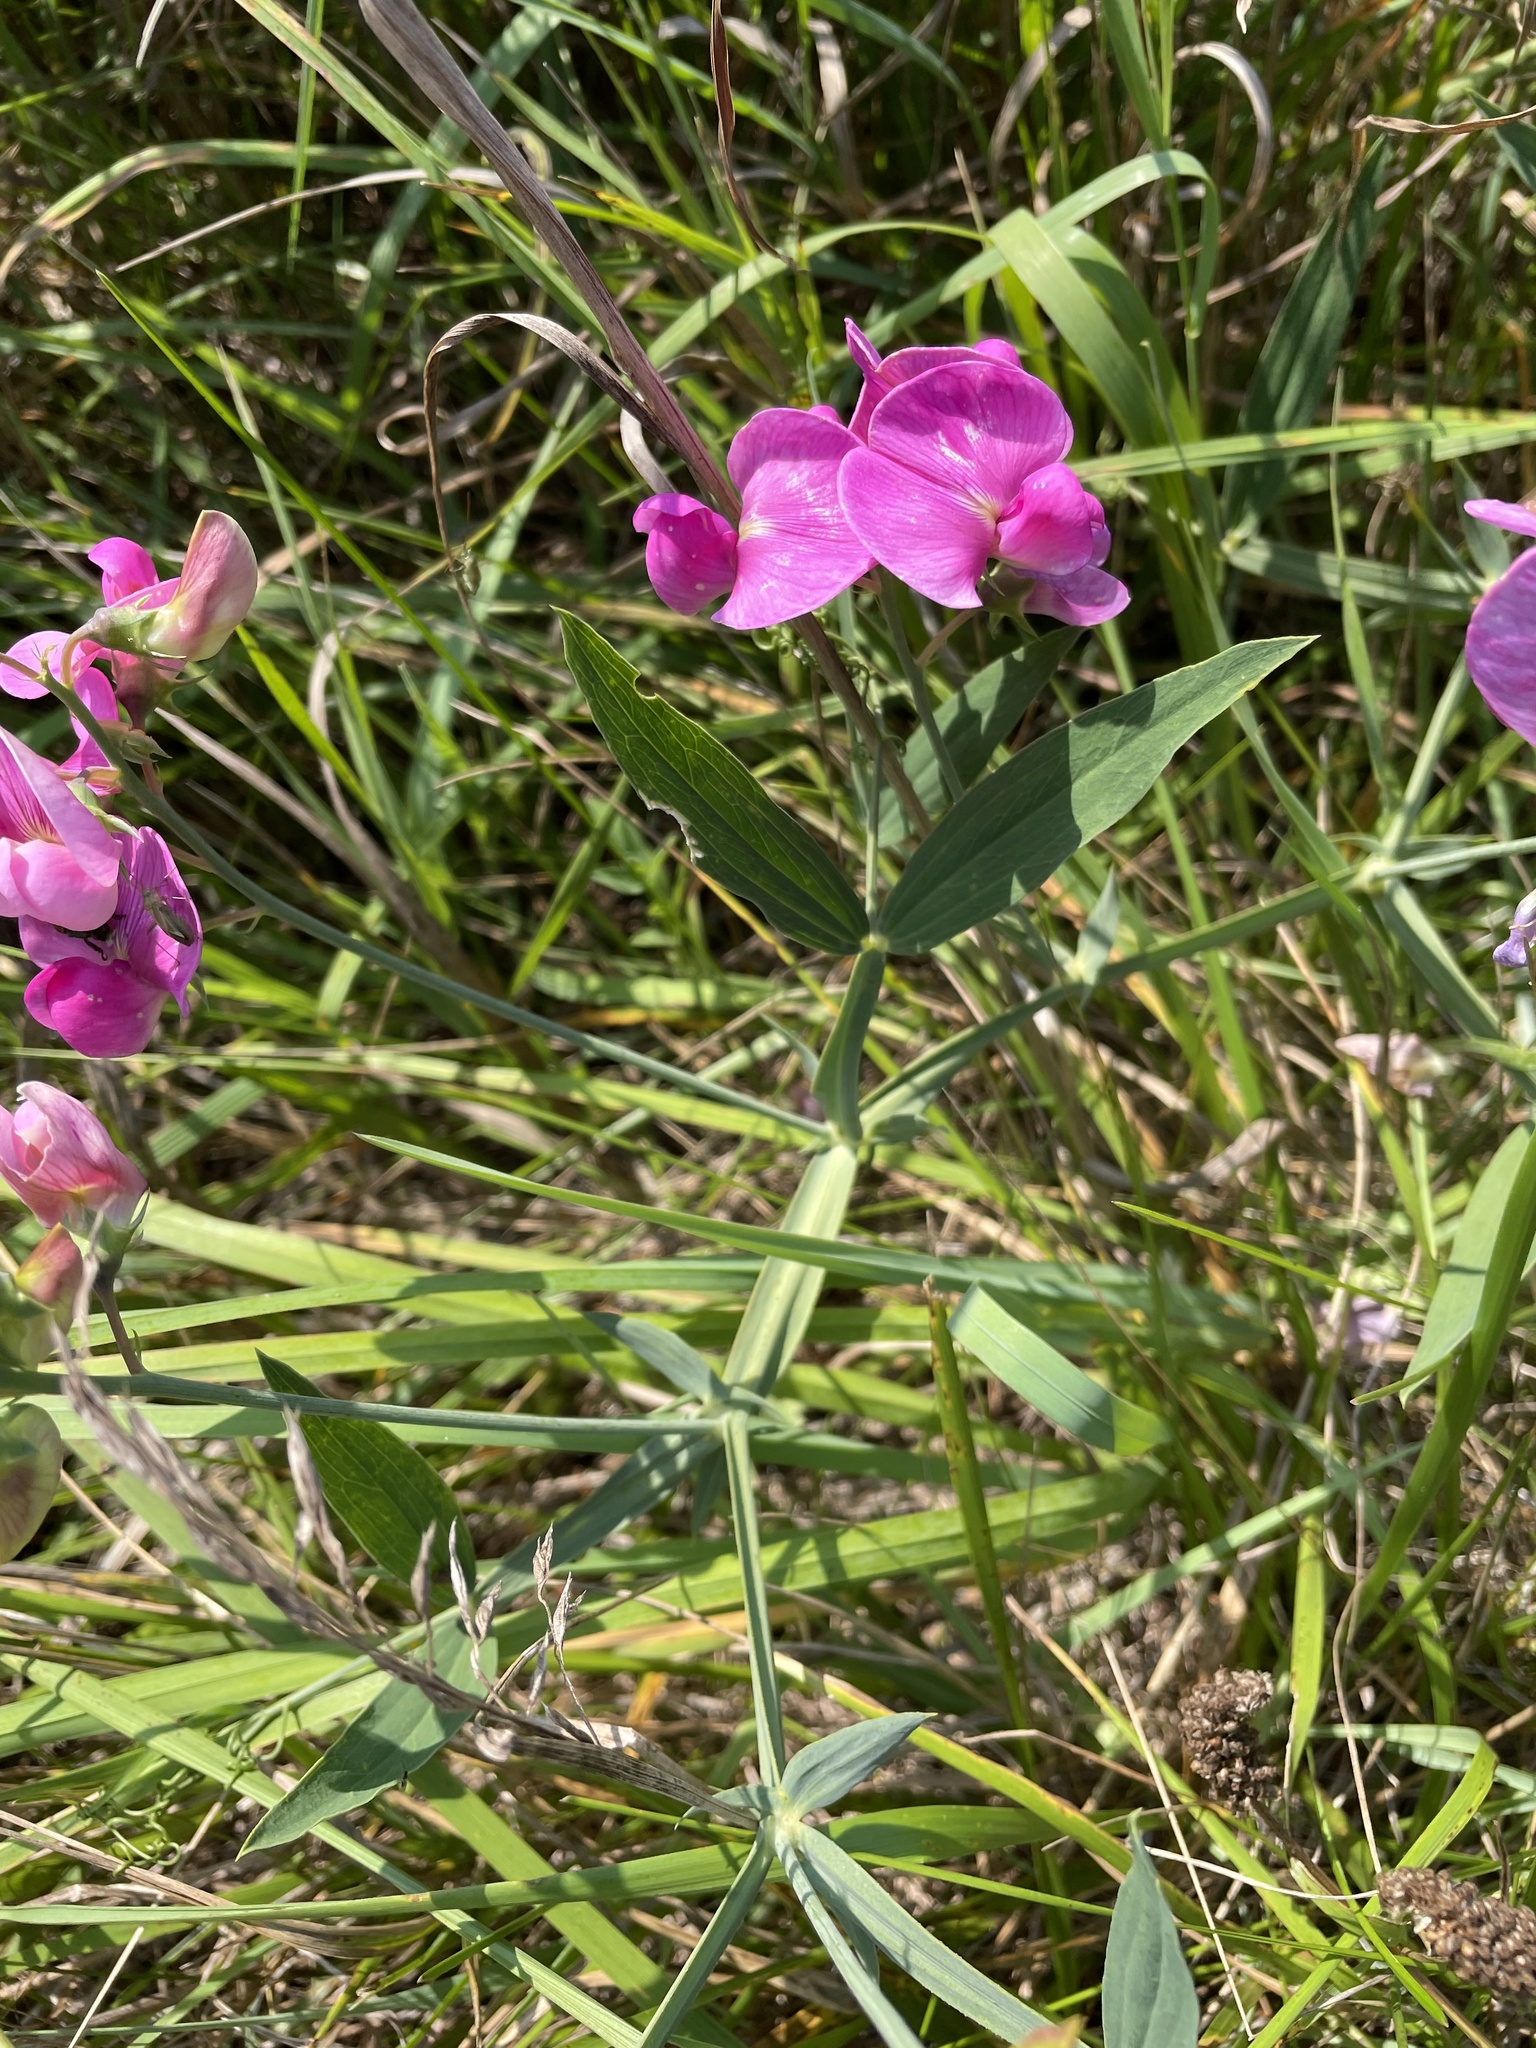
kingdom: Plantae
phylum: Tracheophyta
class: Magnoliopsida
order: Fabales
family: Fabaceae
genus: Lathyrus
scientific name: Lathyrus latifolius
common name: Perennial pea
